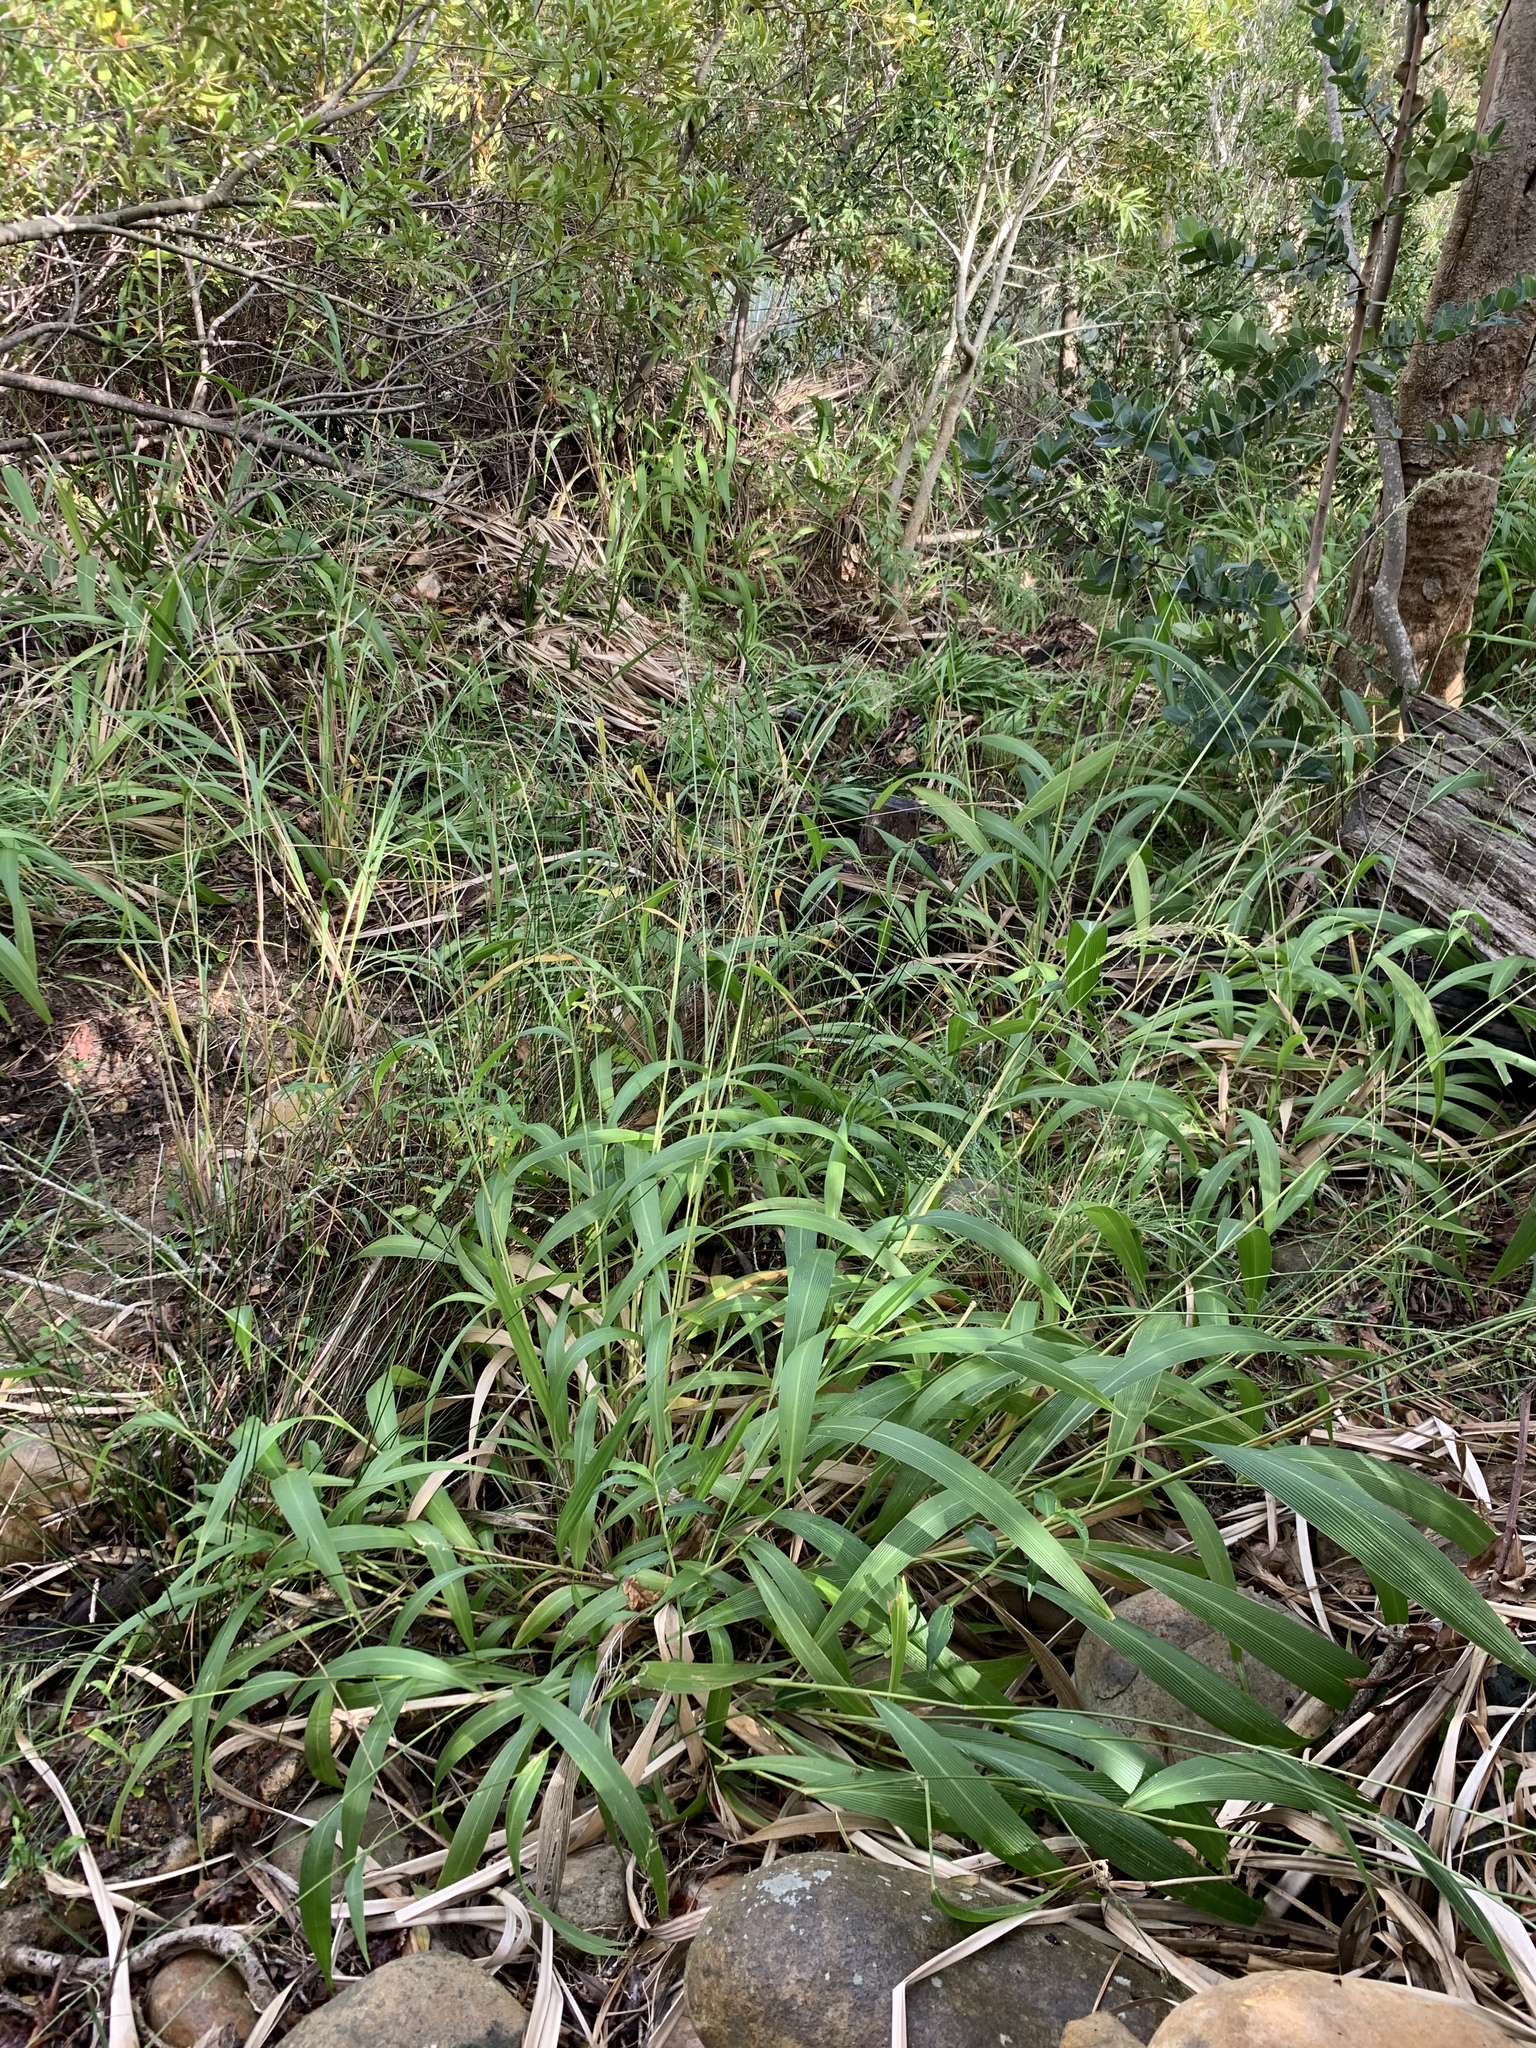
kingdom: Plantae
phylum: Tracheophyta
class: Liliopsida
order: Poales
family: Poaceae
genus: Setaria
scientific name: Setaria megaphylla
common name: Bigleaf bristlegrass
